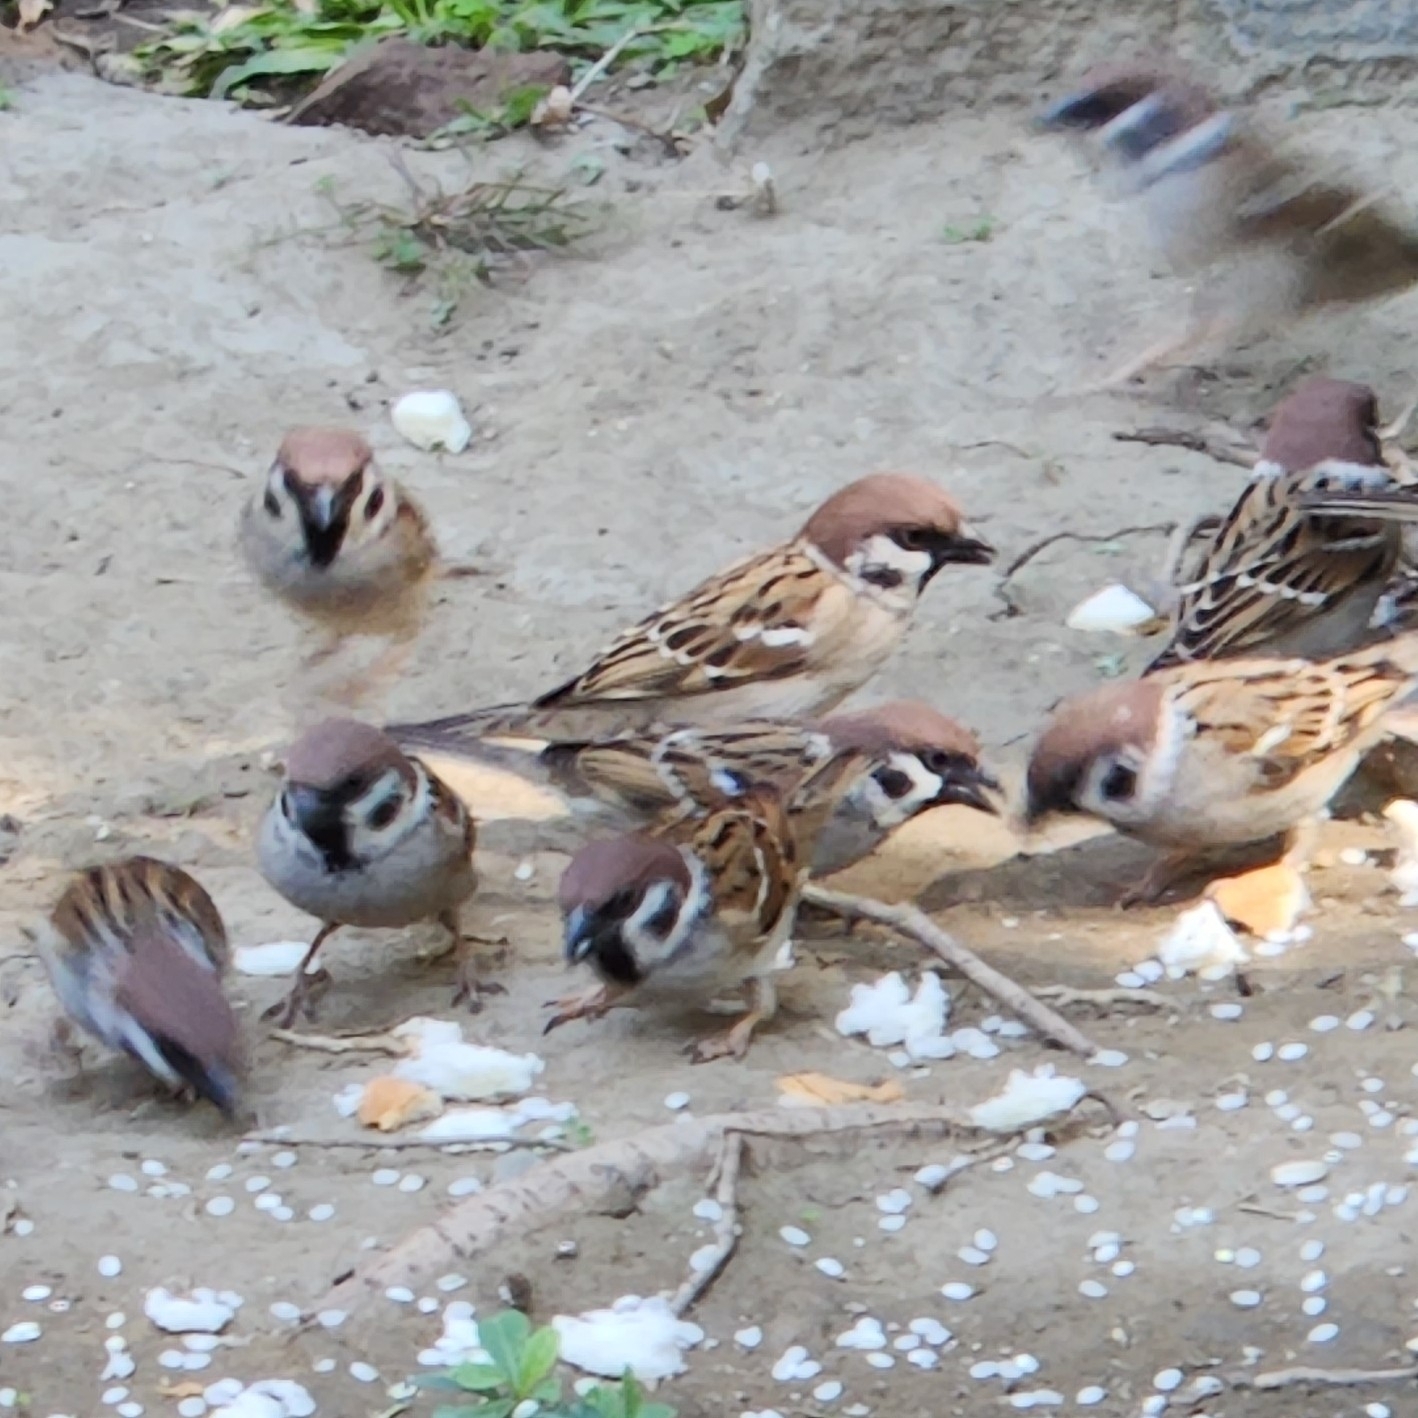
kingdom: Animalia
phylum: Chordata
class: Aves
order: Passeriformes
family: Passeridae
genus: Passer
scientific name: Passer montanus
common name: Eurasian tree sparrow
